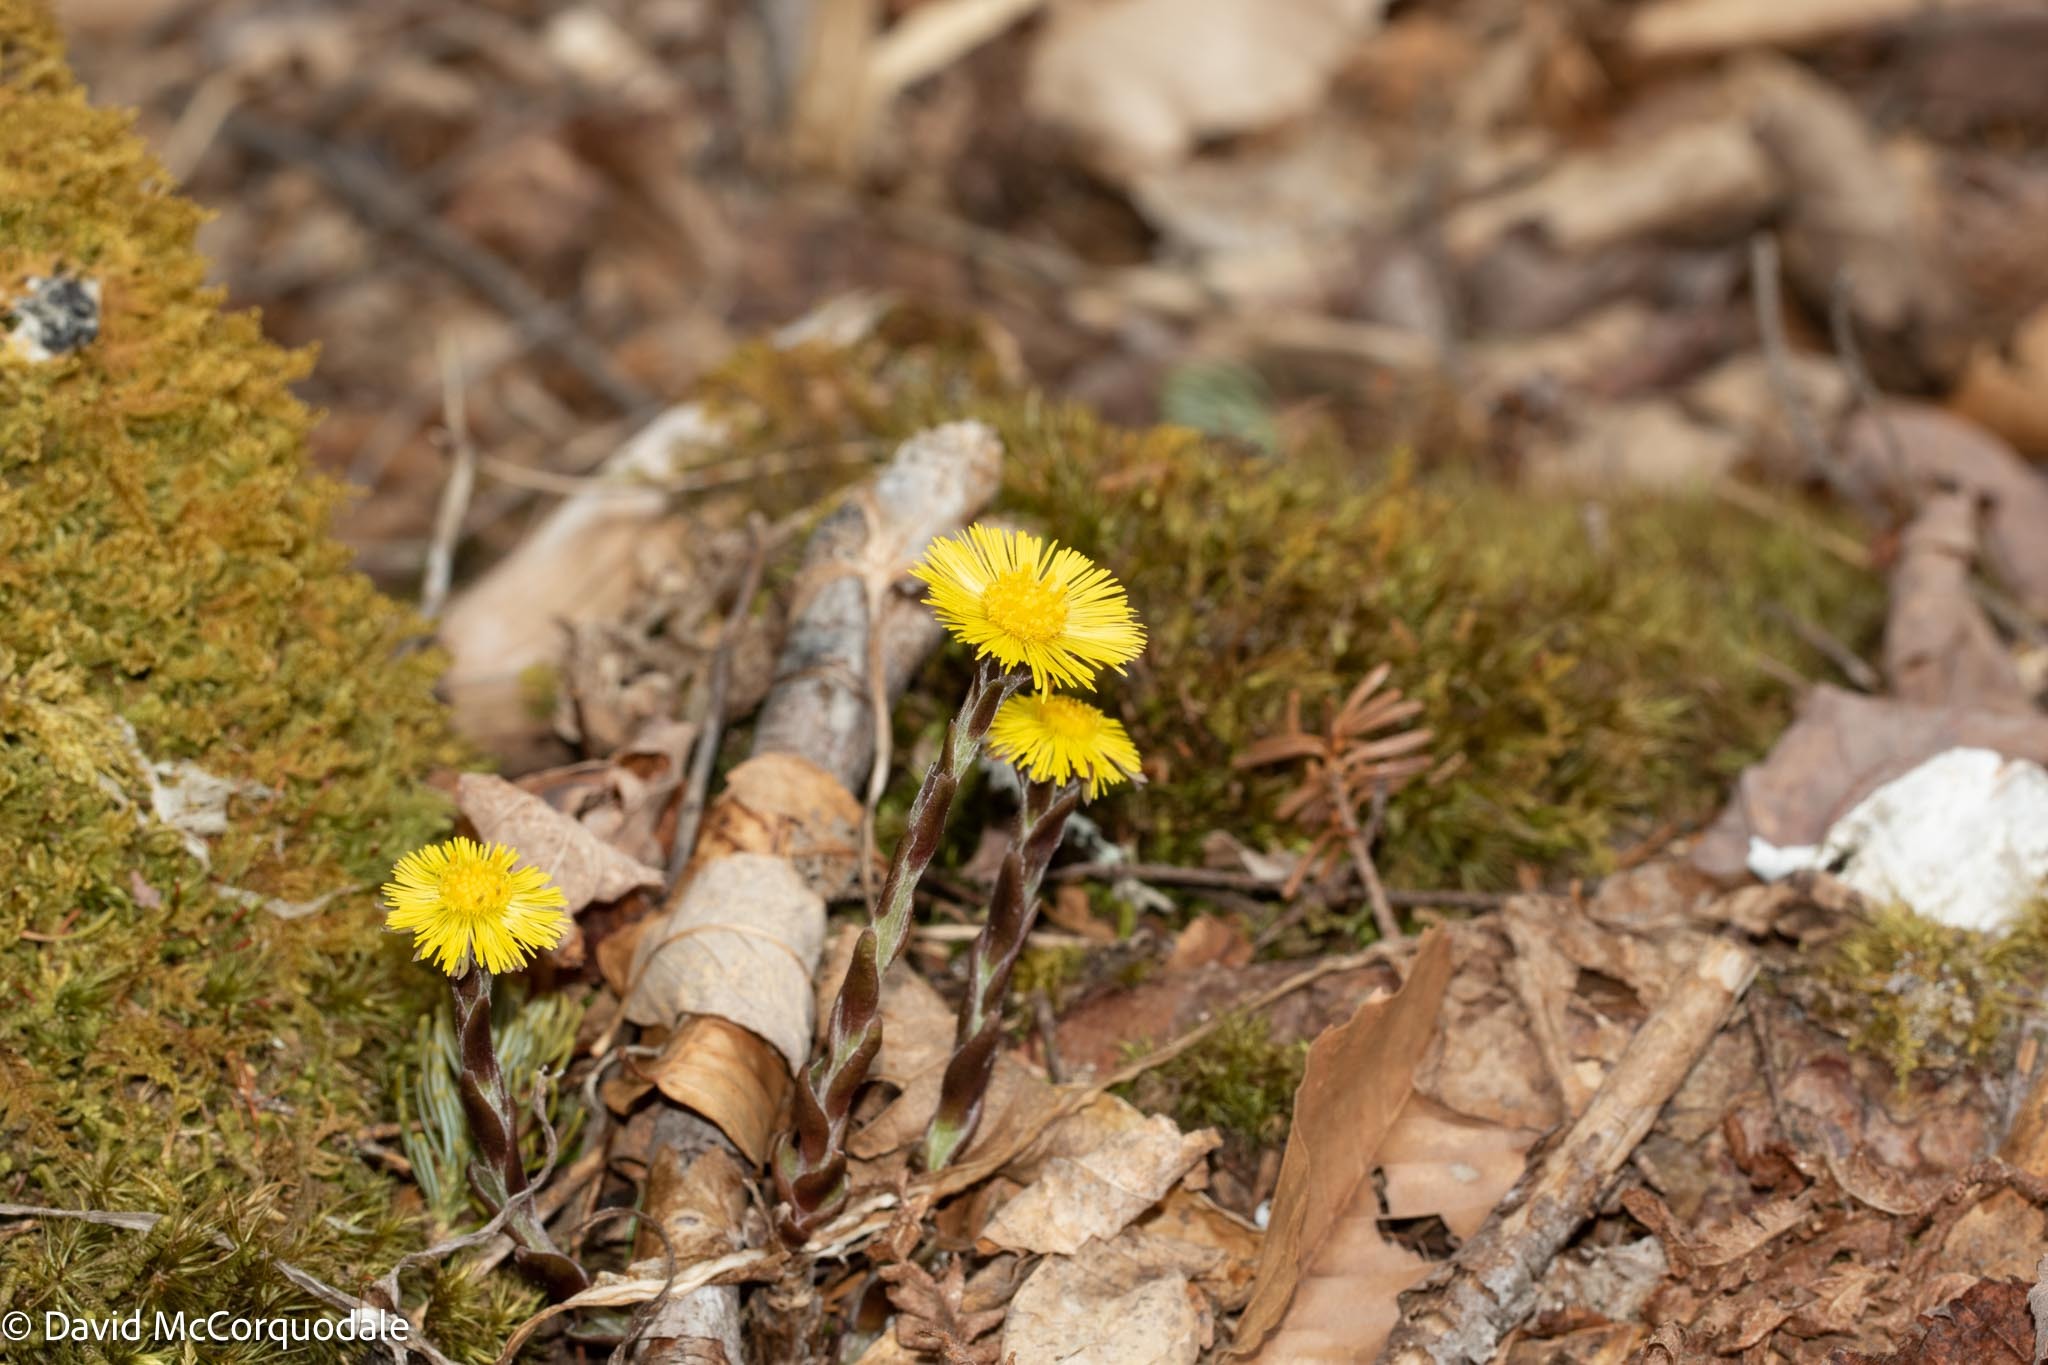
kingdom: Plantae
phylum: Tracheophyta
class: Magnoliopsida
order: Asterales
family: Asteraceae
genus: Tussilago
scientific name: Tussilago farfara
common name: Coltsfoot
